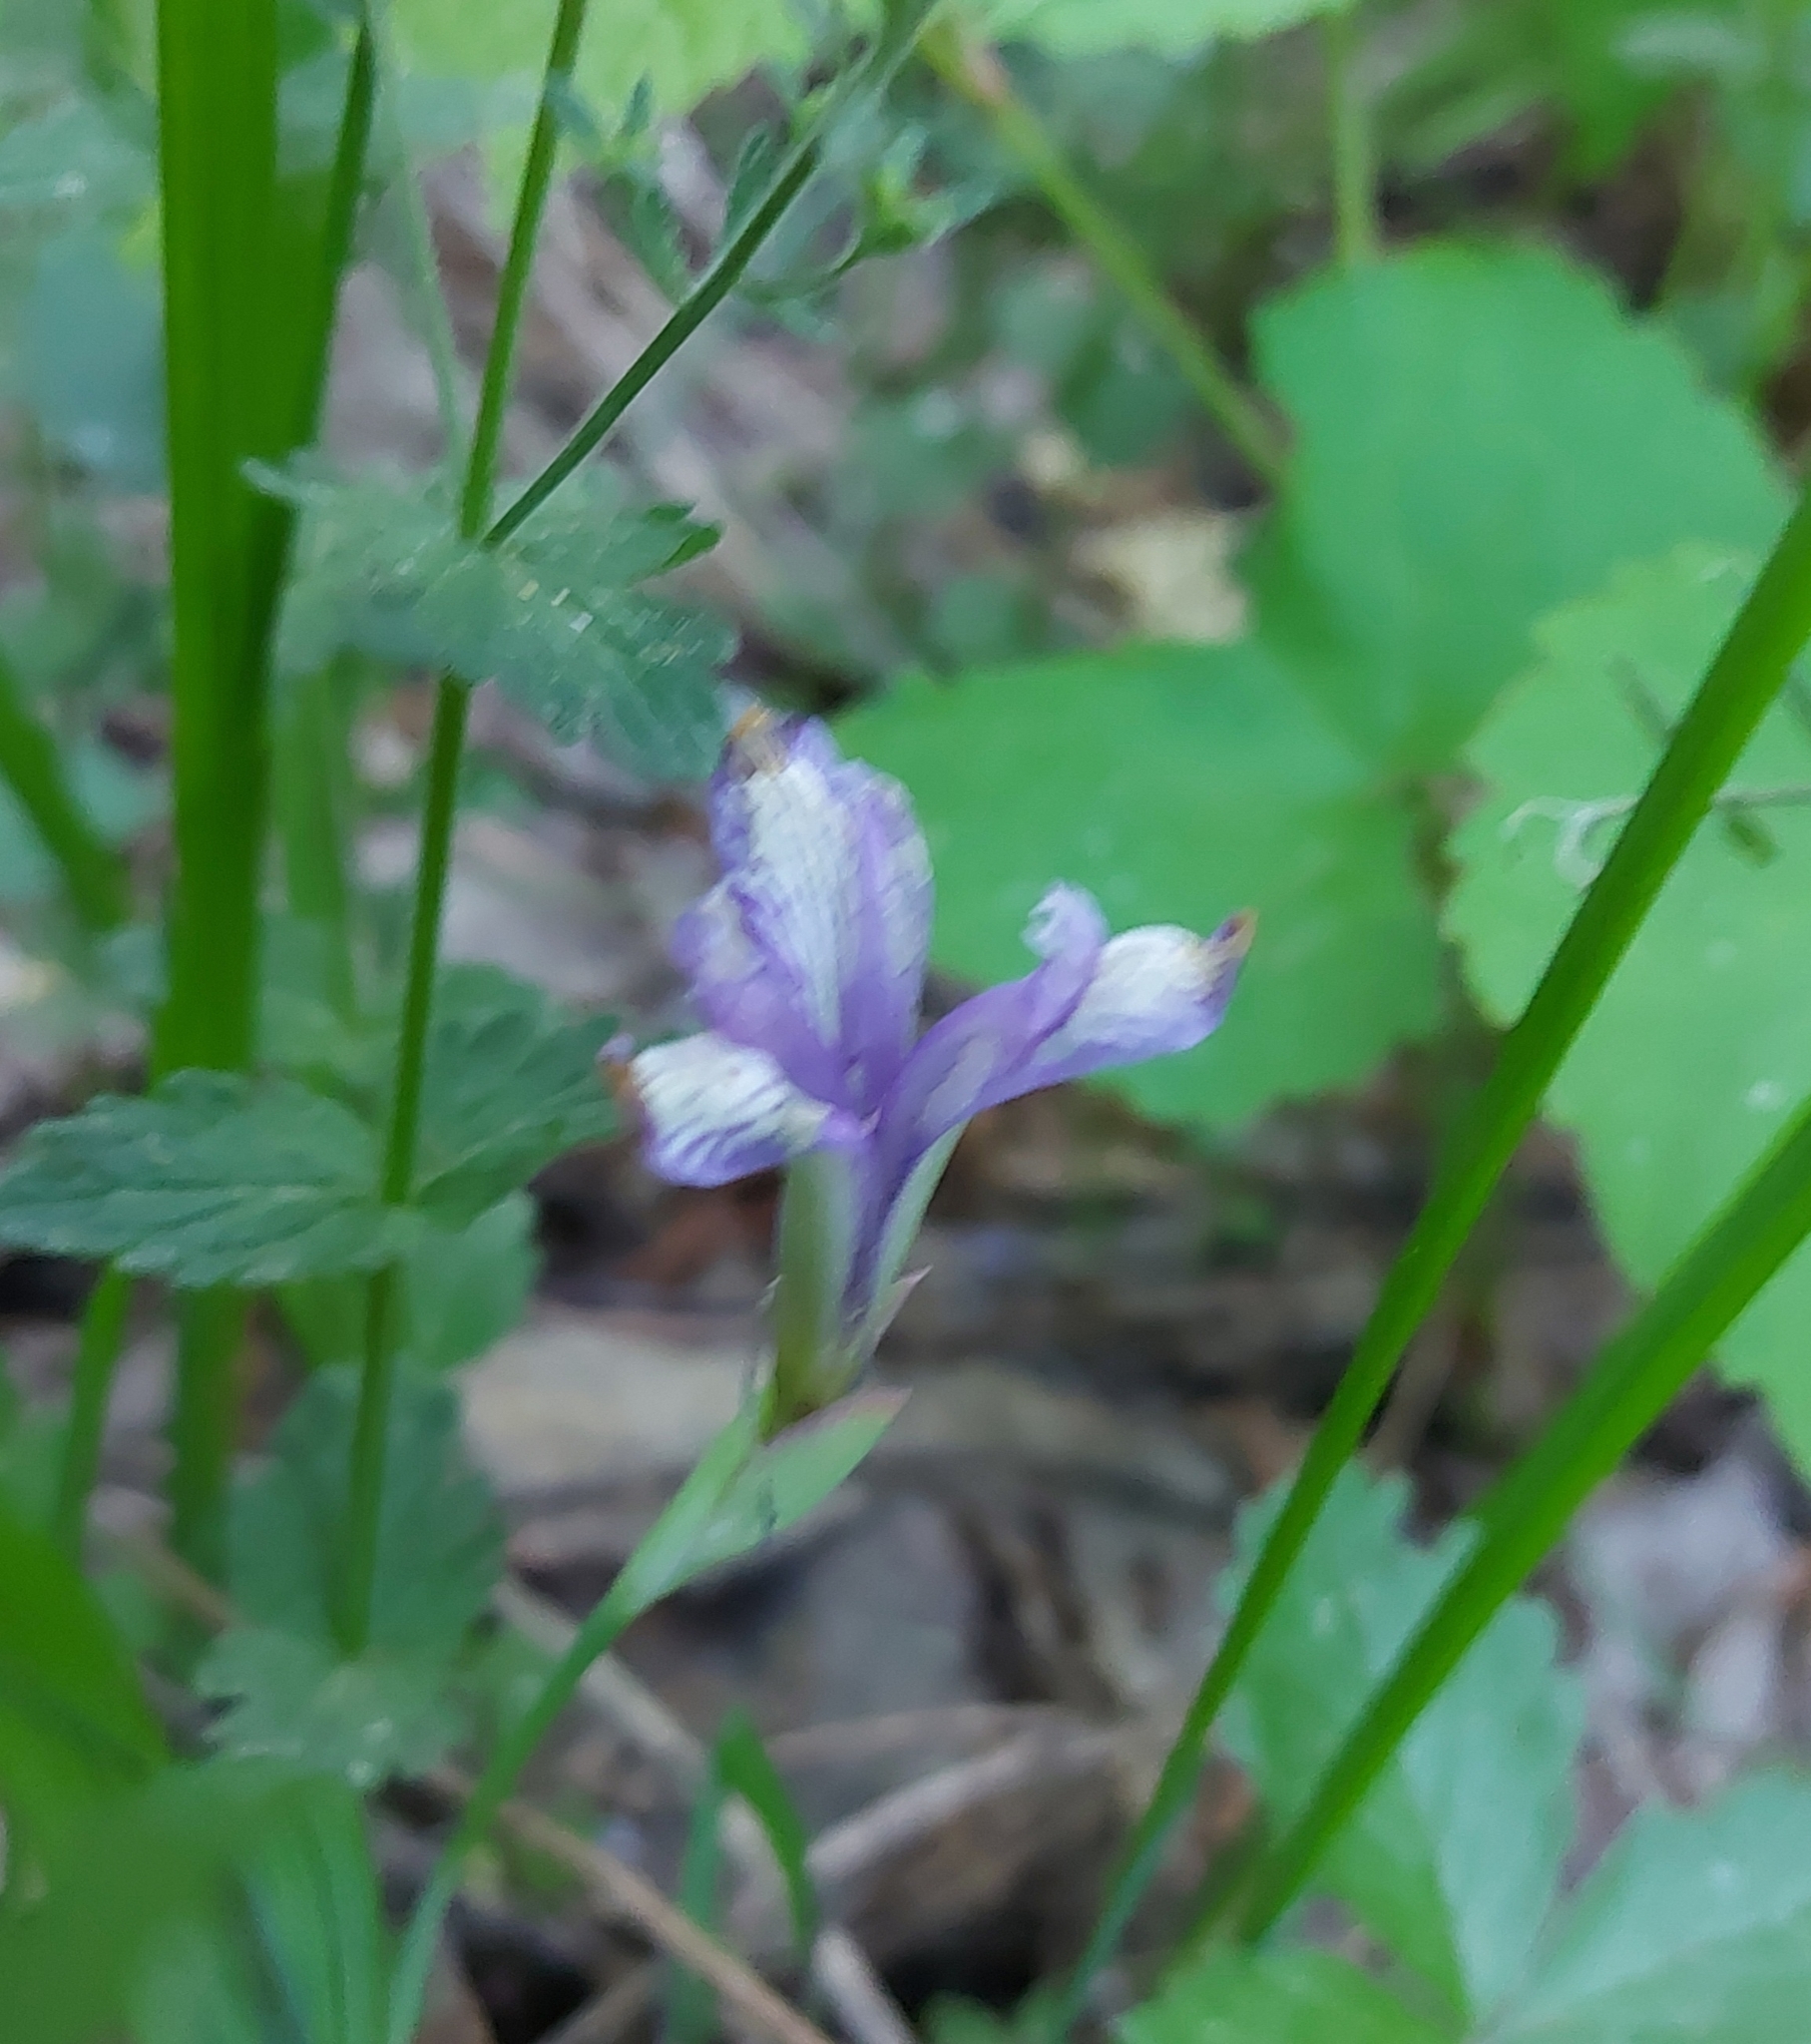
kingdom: Plantae
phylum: Tracheophyta
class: Liliopsida
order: Asparagales
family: Iridaceae
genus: Iris
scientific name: Iris ruthenica
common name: Purple-bract iris
